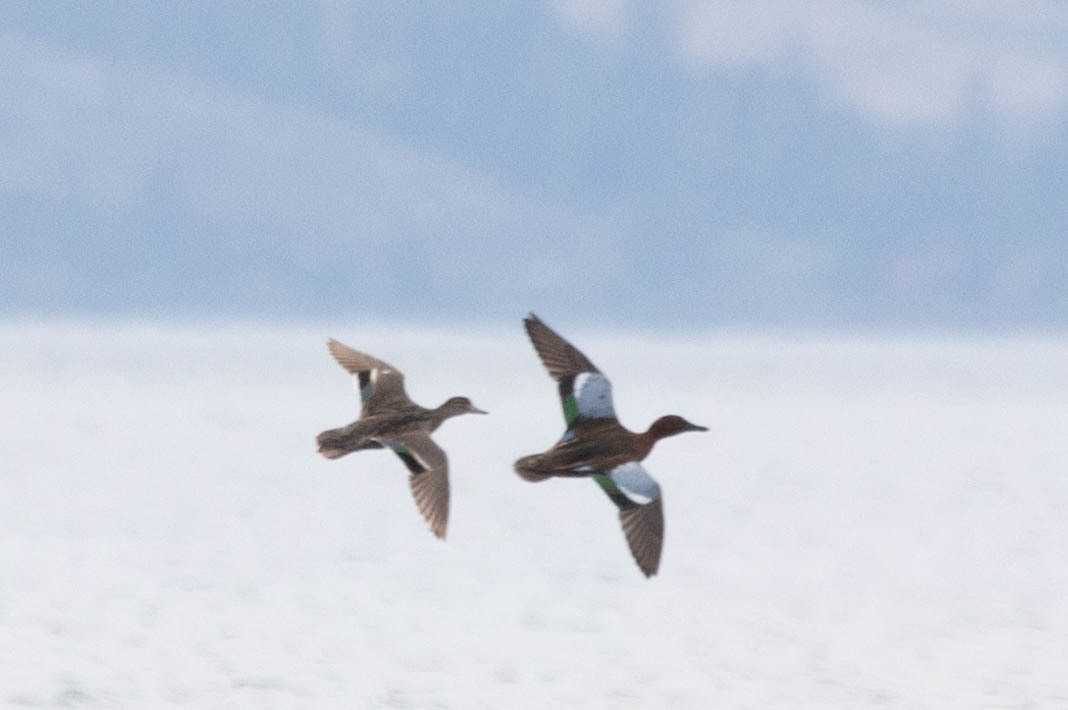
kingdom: Animalia
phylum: Chordata
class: Aves
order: Anseriformes
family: Anatidae
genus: Spatula
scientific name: Spatula cyanoptera
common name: Cinnamon teal
